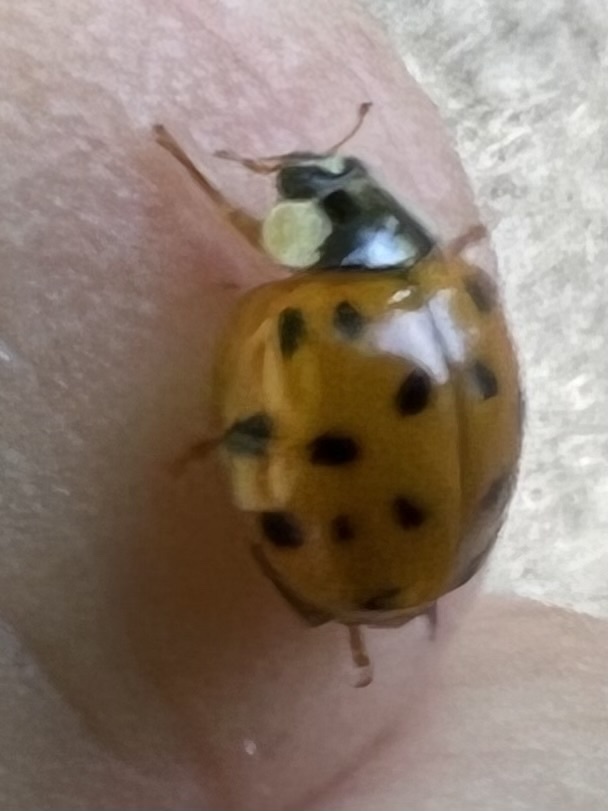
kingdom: Animalia
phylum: Arthropoda
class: Insecta
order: Coleoptera
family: Coccinellidae
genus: Harmonia
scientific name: Harmonia axyridis
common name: Harlequin ladybird
